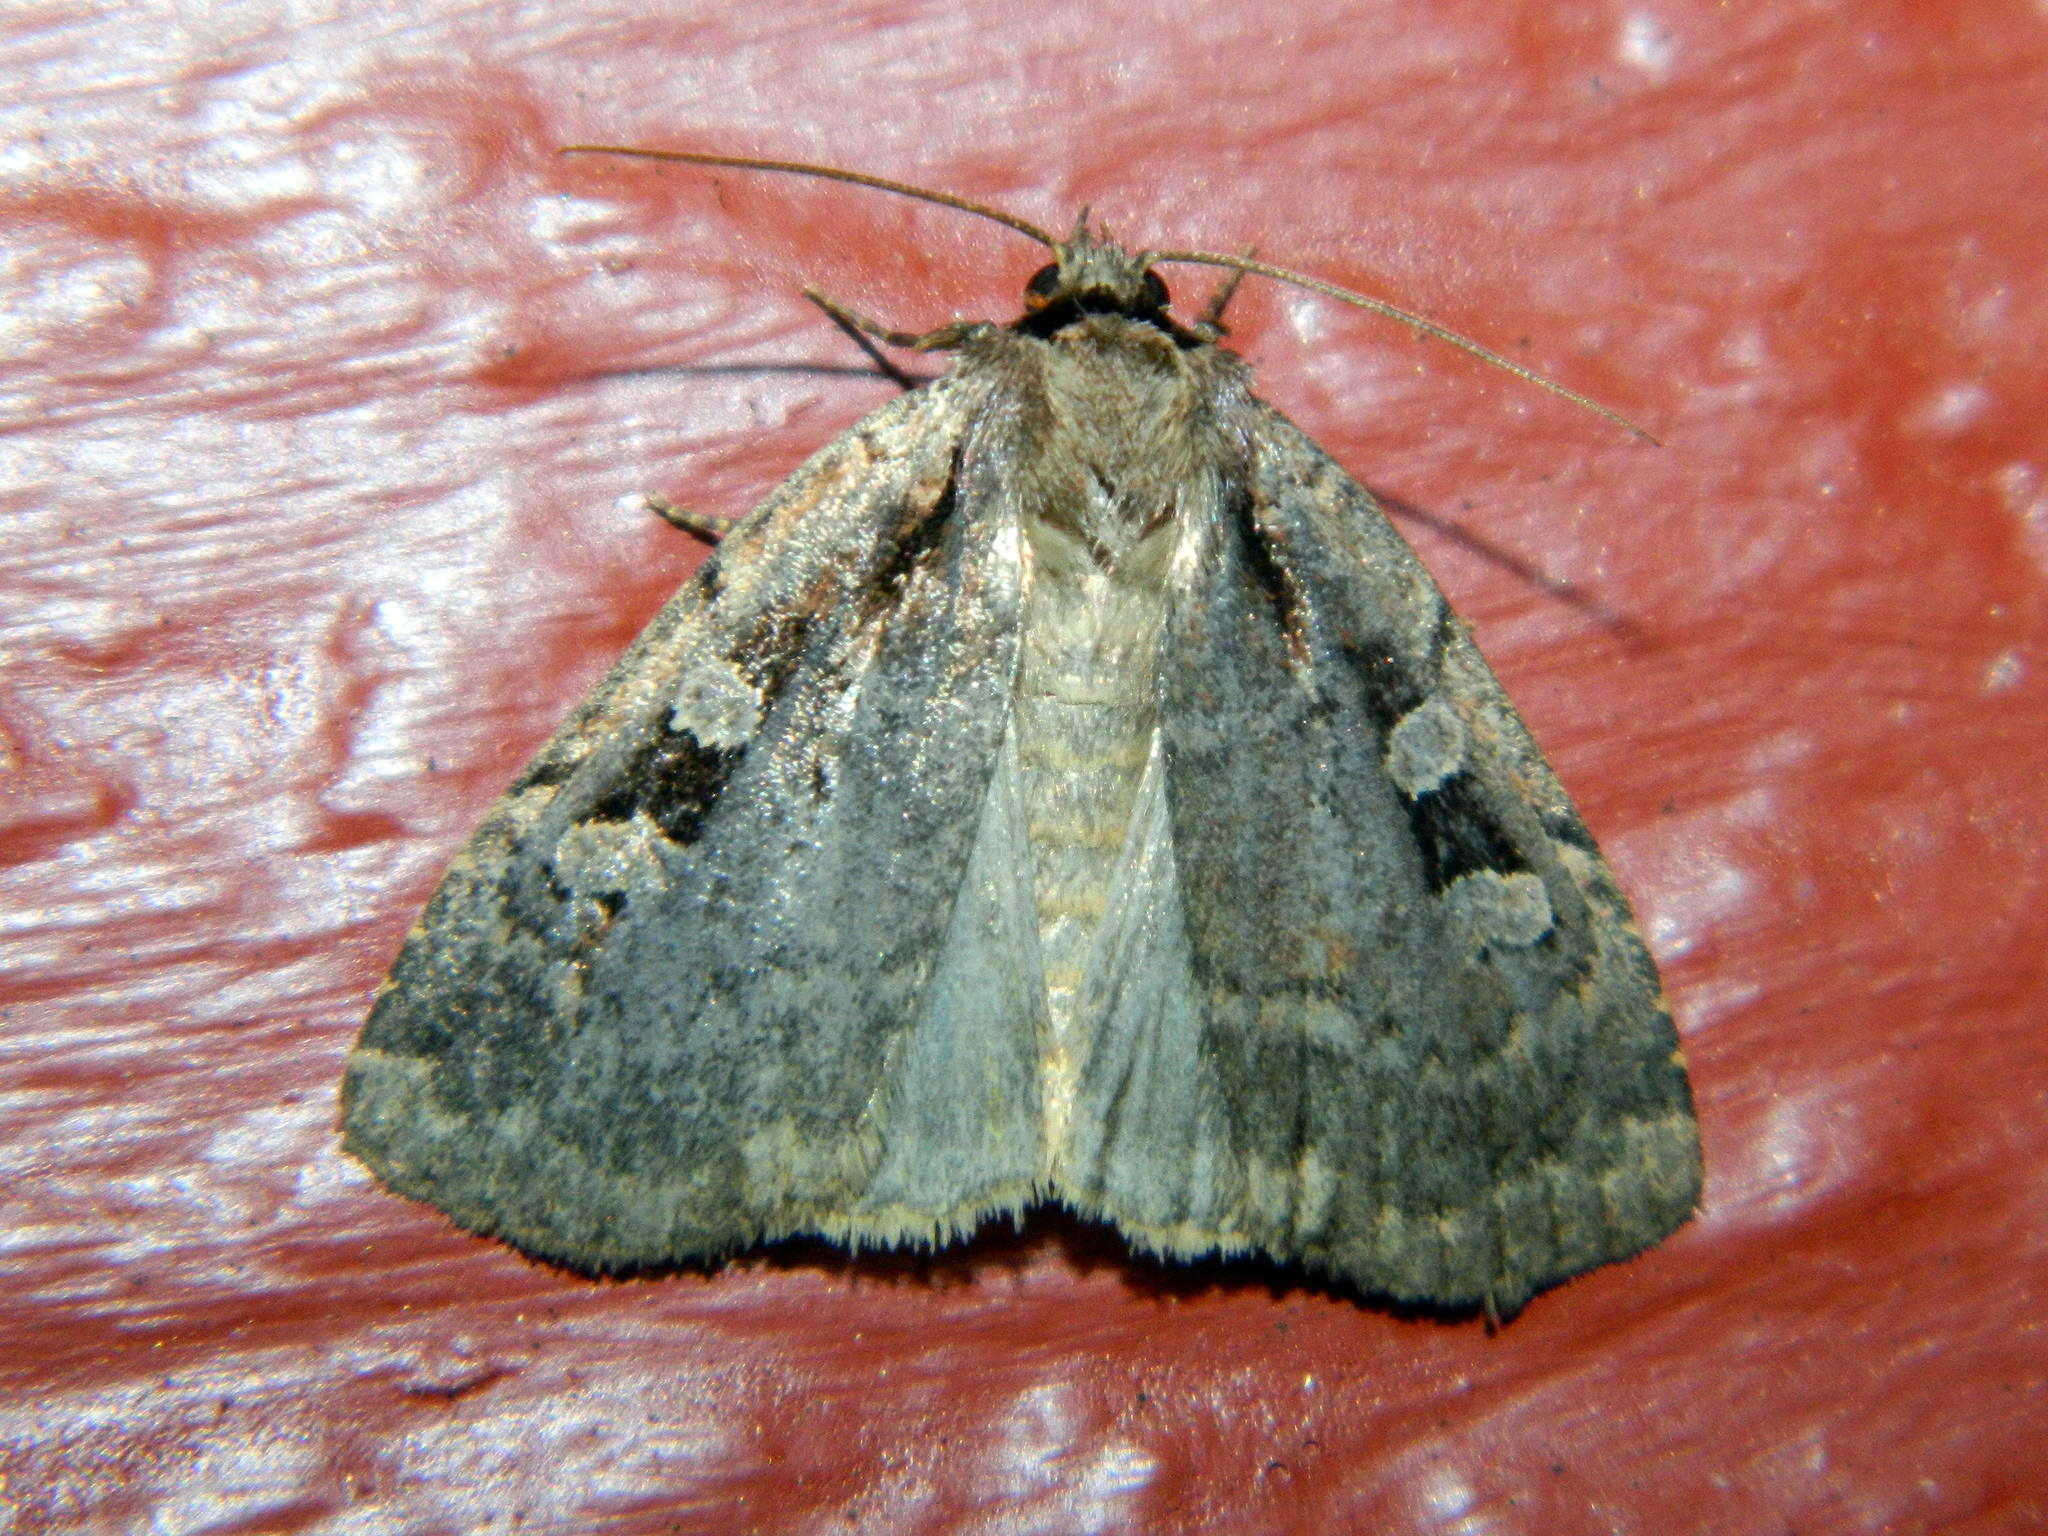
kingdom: Animalia
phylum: Arthropoda
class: Insecta
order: Lepidoptera
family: Noctuidae
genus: Eueretagrotis
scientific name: Eueretagrotis perattentus
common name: Two-spot dart moth
